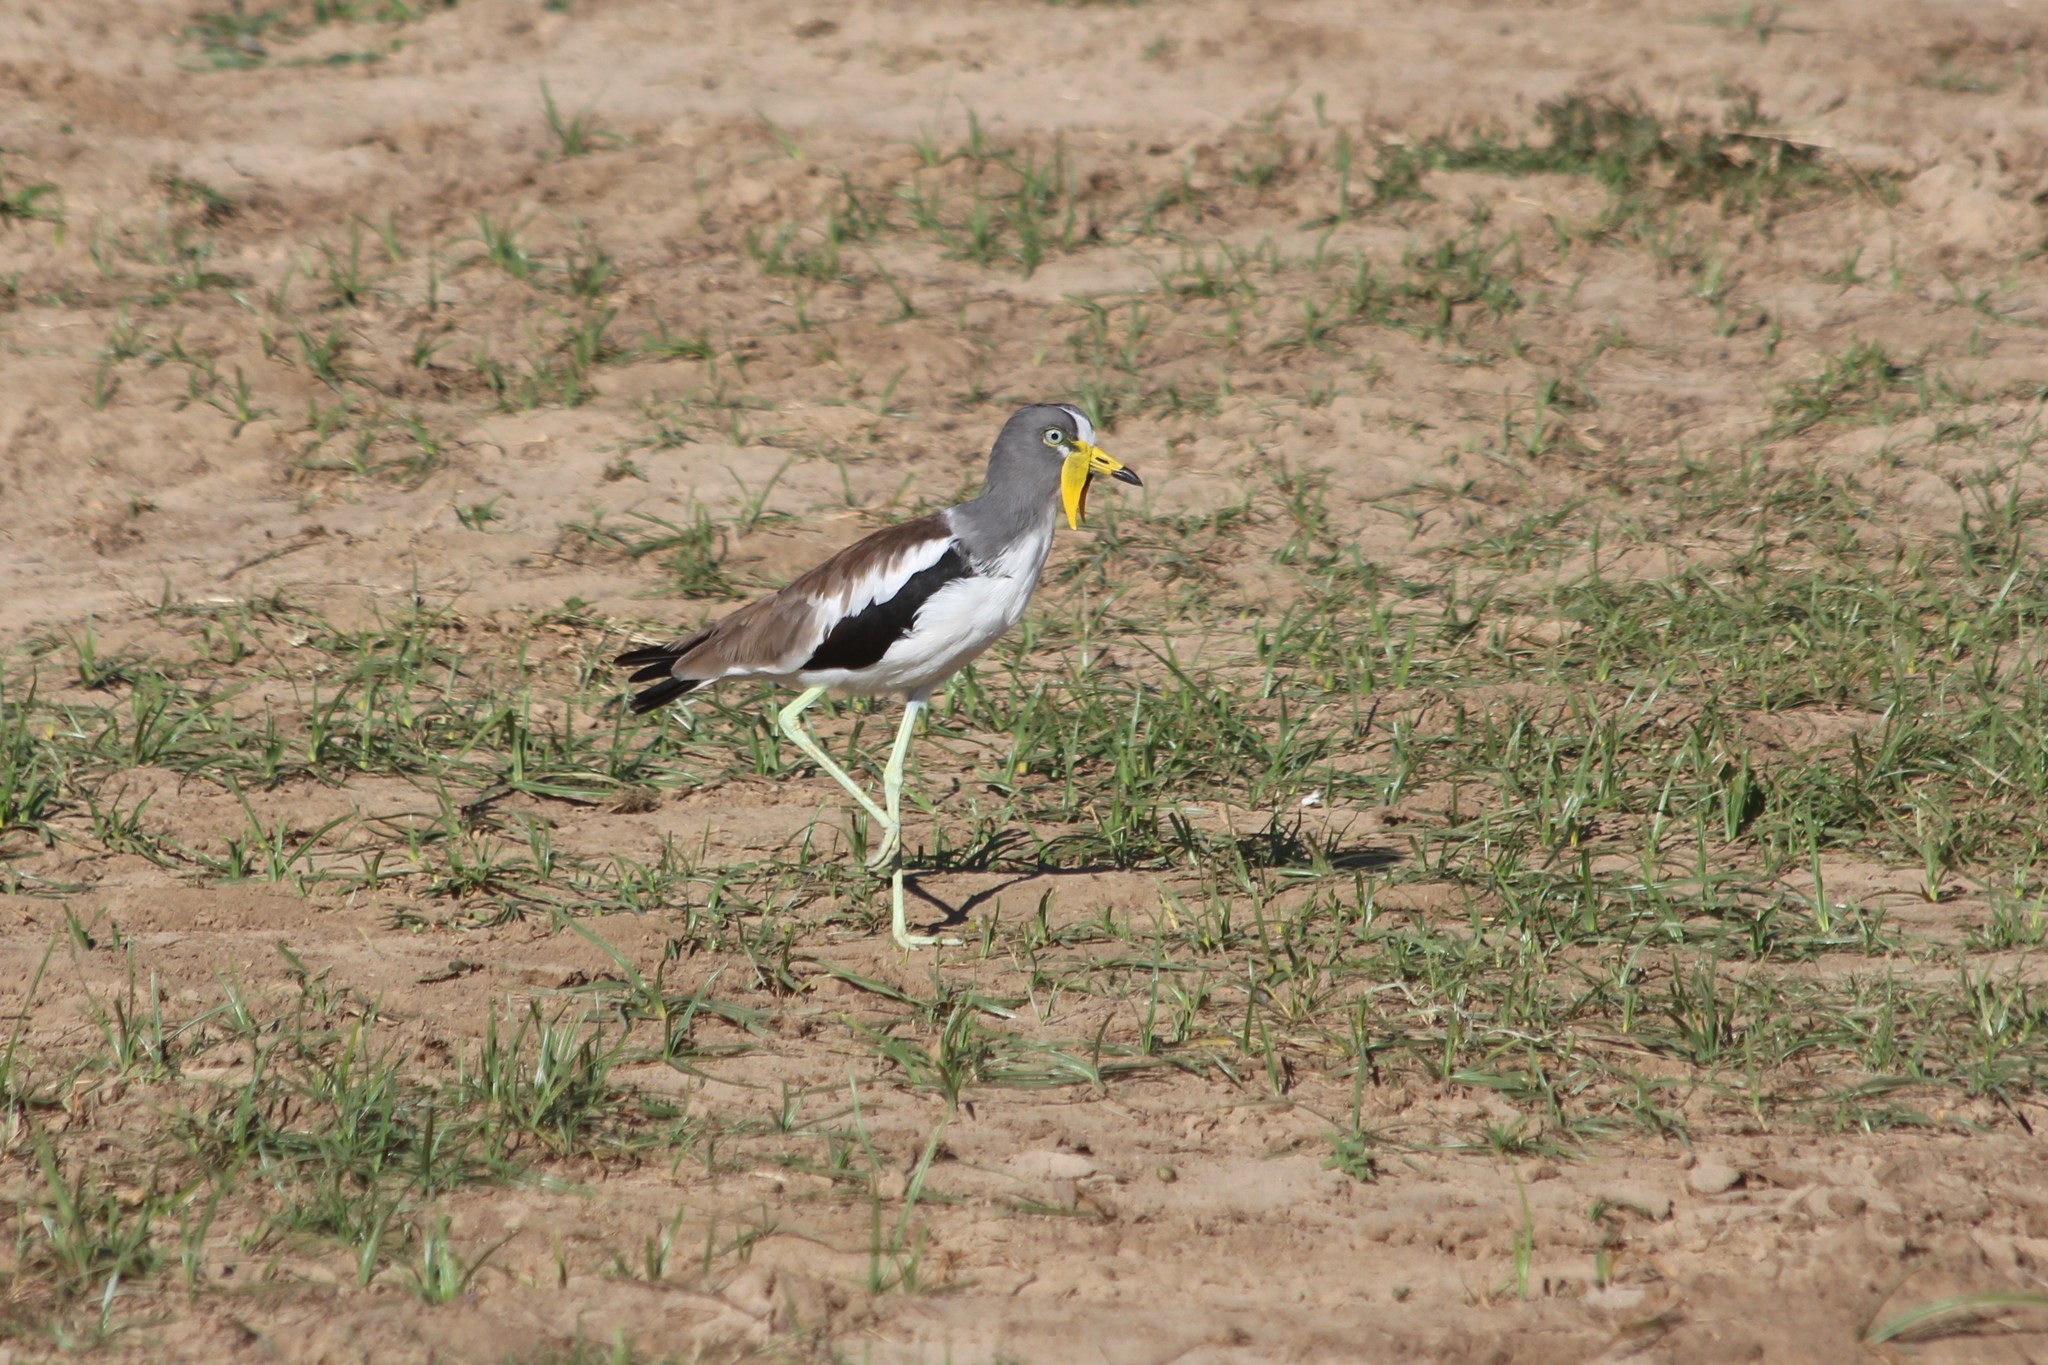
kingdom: Animalia
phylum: Chordata
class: Aves
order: Charadriiformes
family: Charadriidae
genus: Vanellus
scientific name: Vanellus albiceps
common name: White-crowned lapwing
